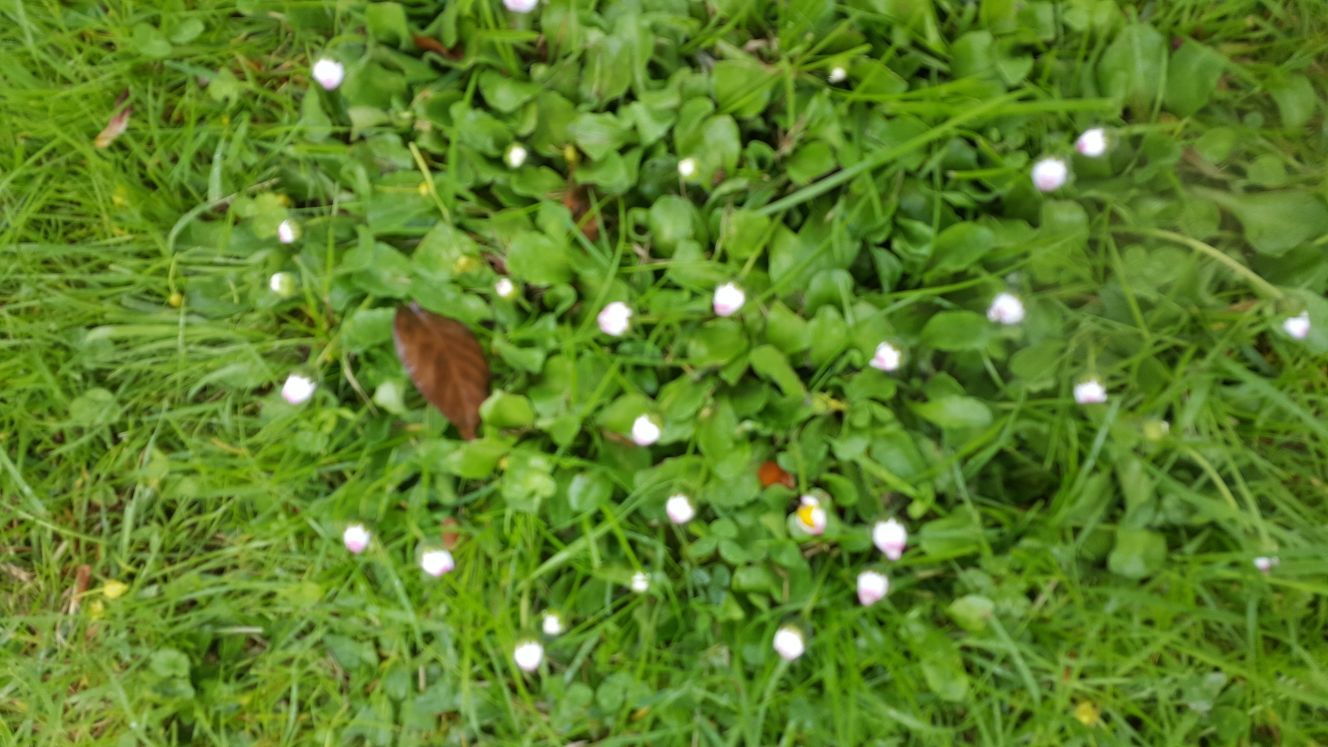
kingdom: Plantae
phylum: Tracheophyta
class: Magnoliopsida
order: Asterales
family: Asteraceae
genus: Bellis
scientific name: Bellis perennis
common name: Lawndaisy
